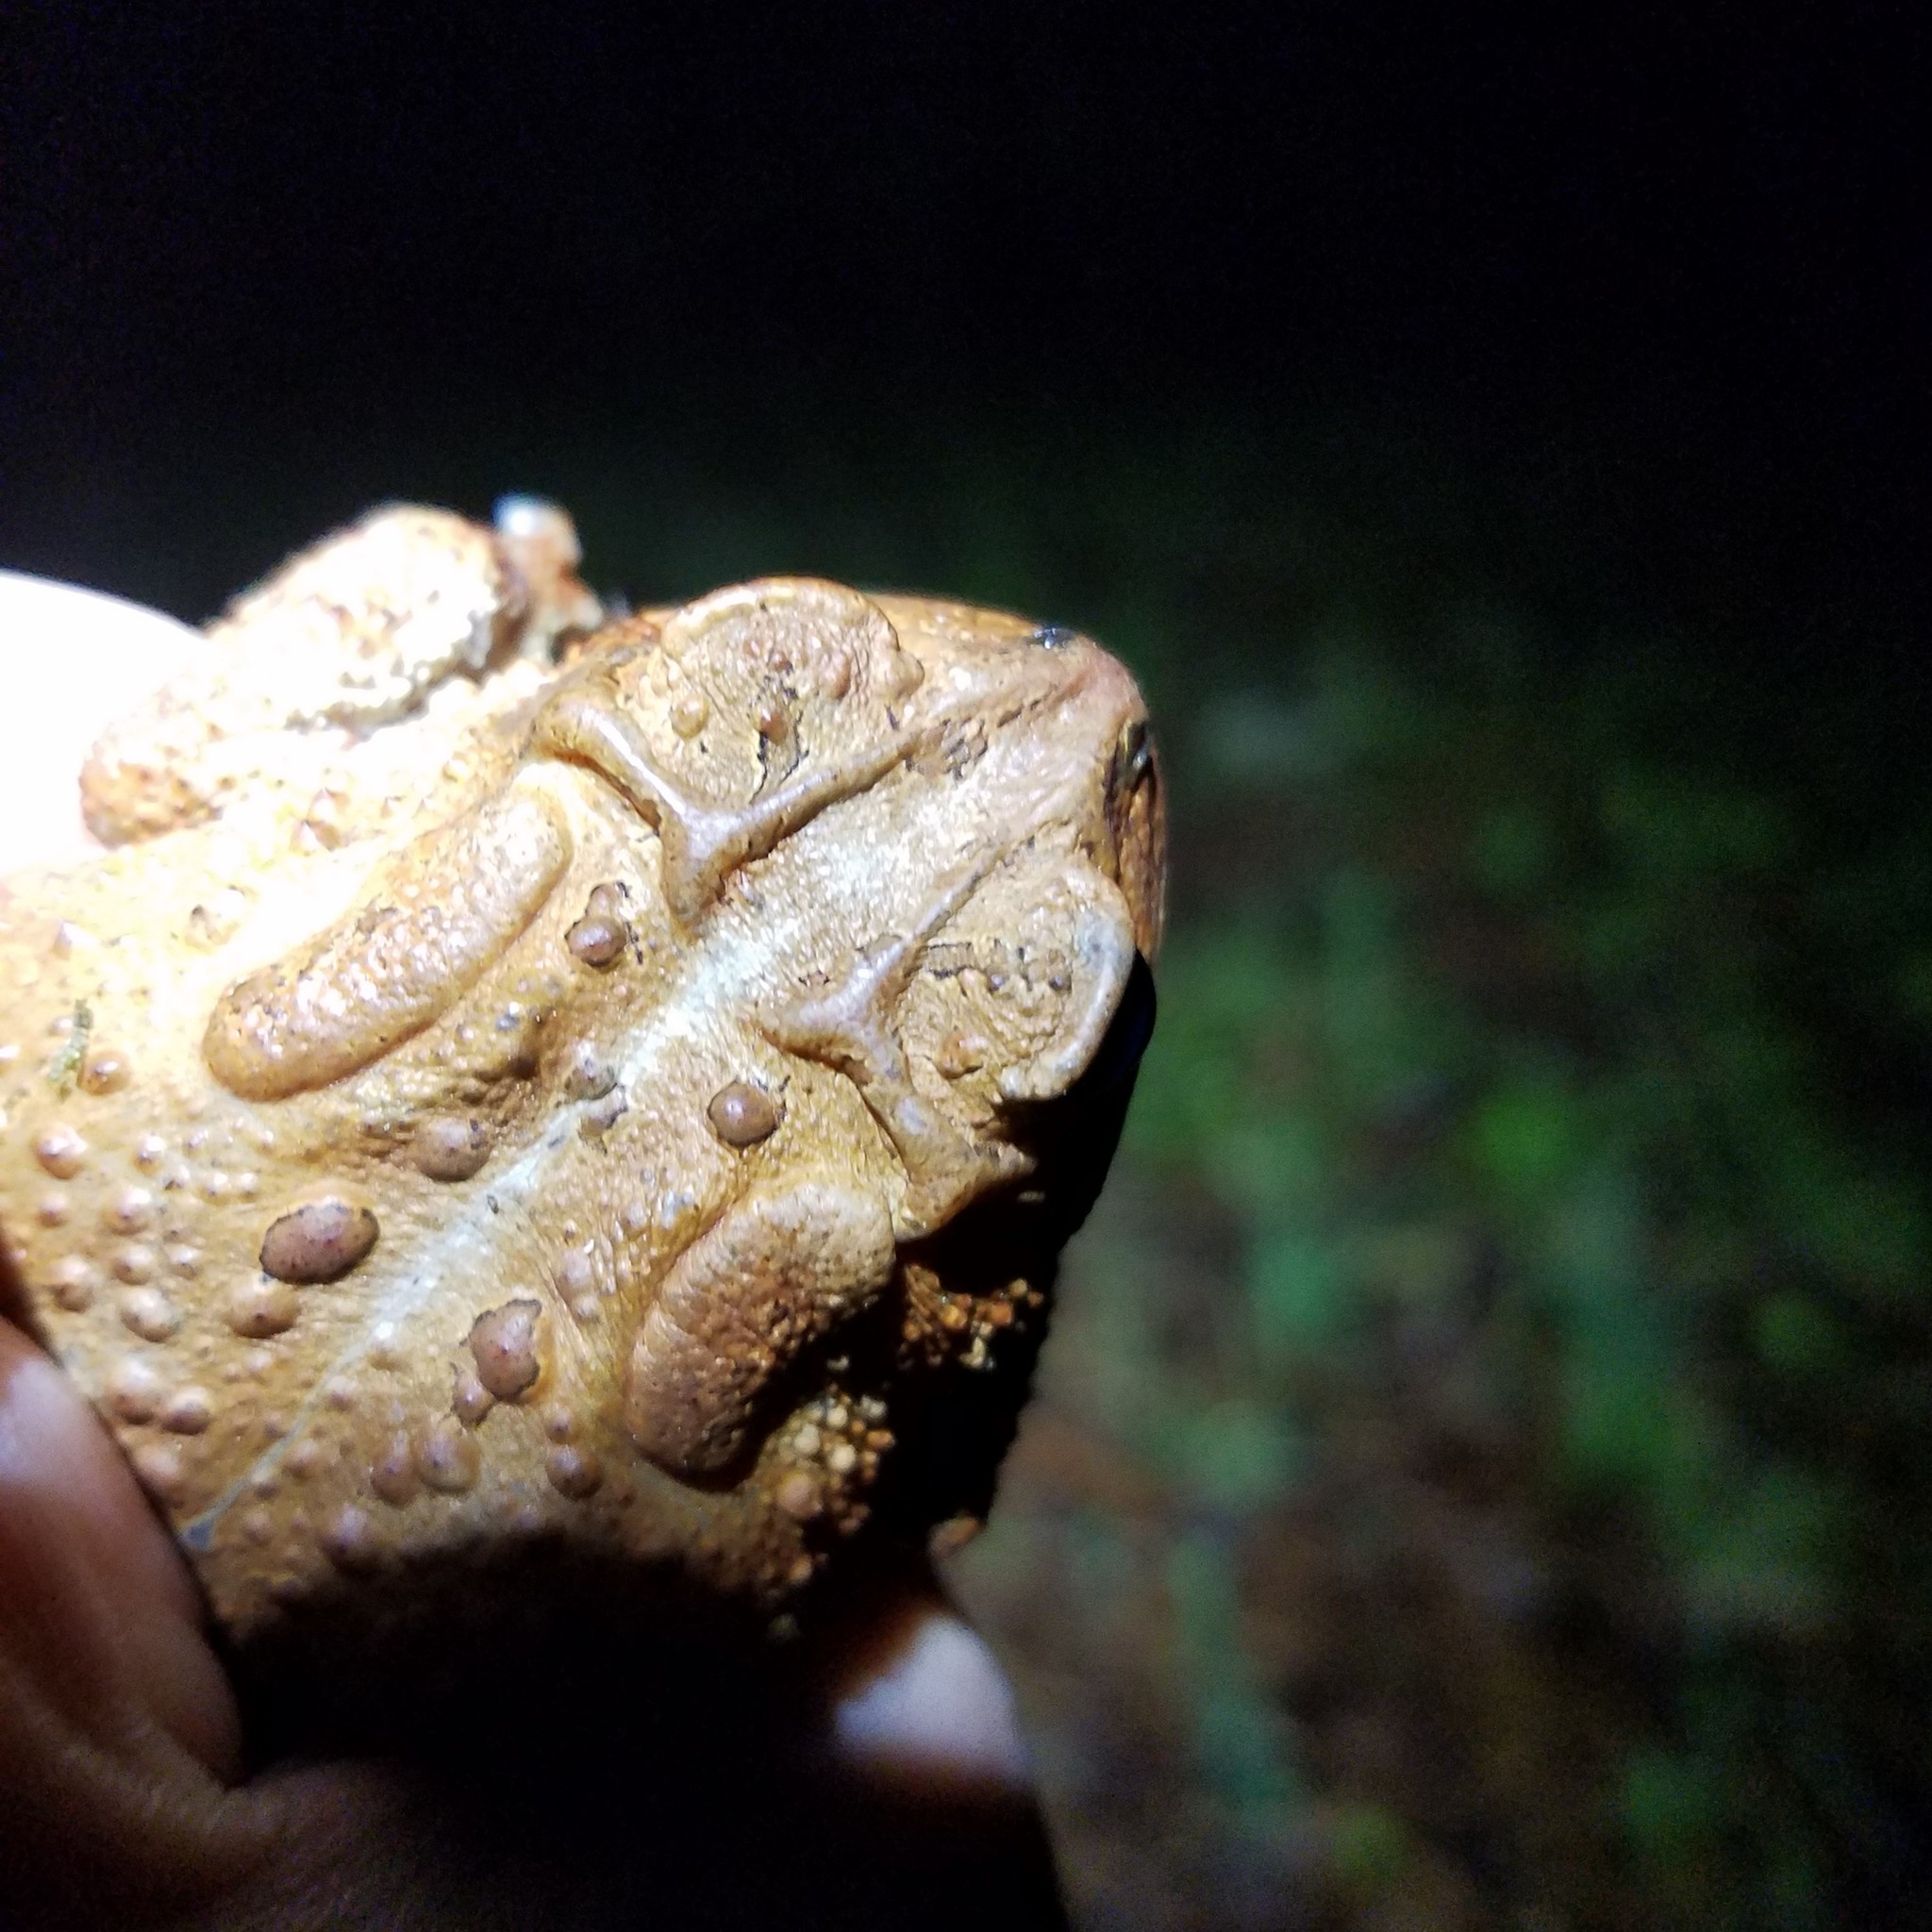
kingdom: Animalia
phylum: Chordata
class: Amphibia
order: Anura
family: Bufonidae
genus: Anaxyrus
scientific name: Anaxyrus americanus
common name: American toad
